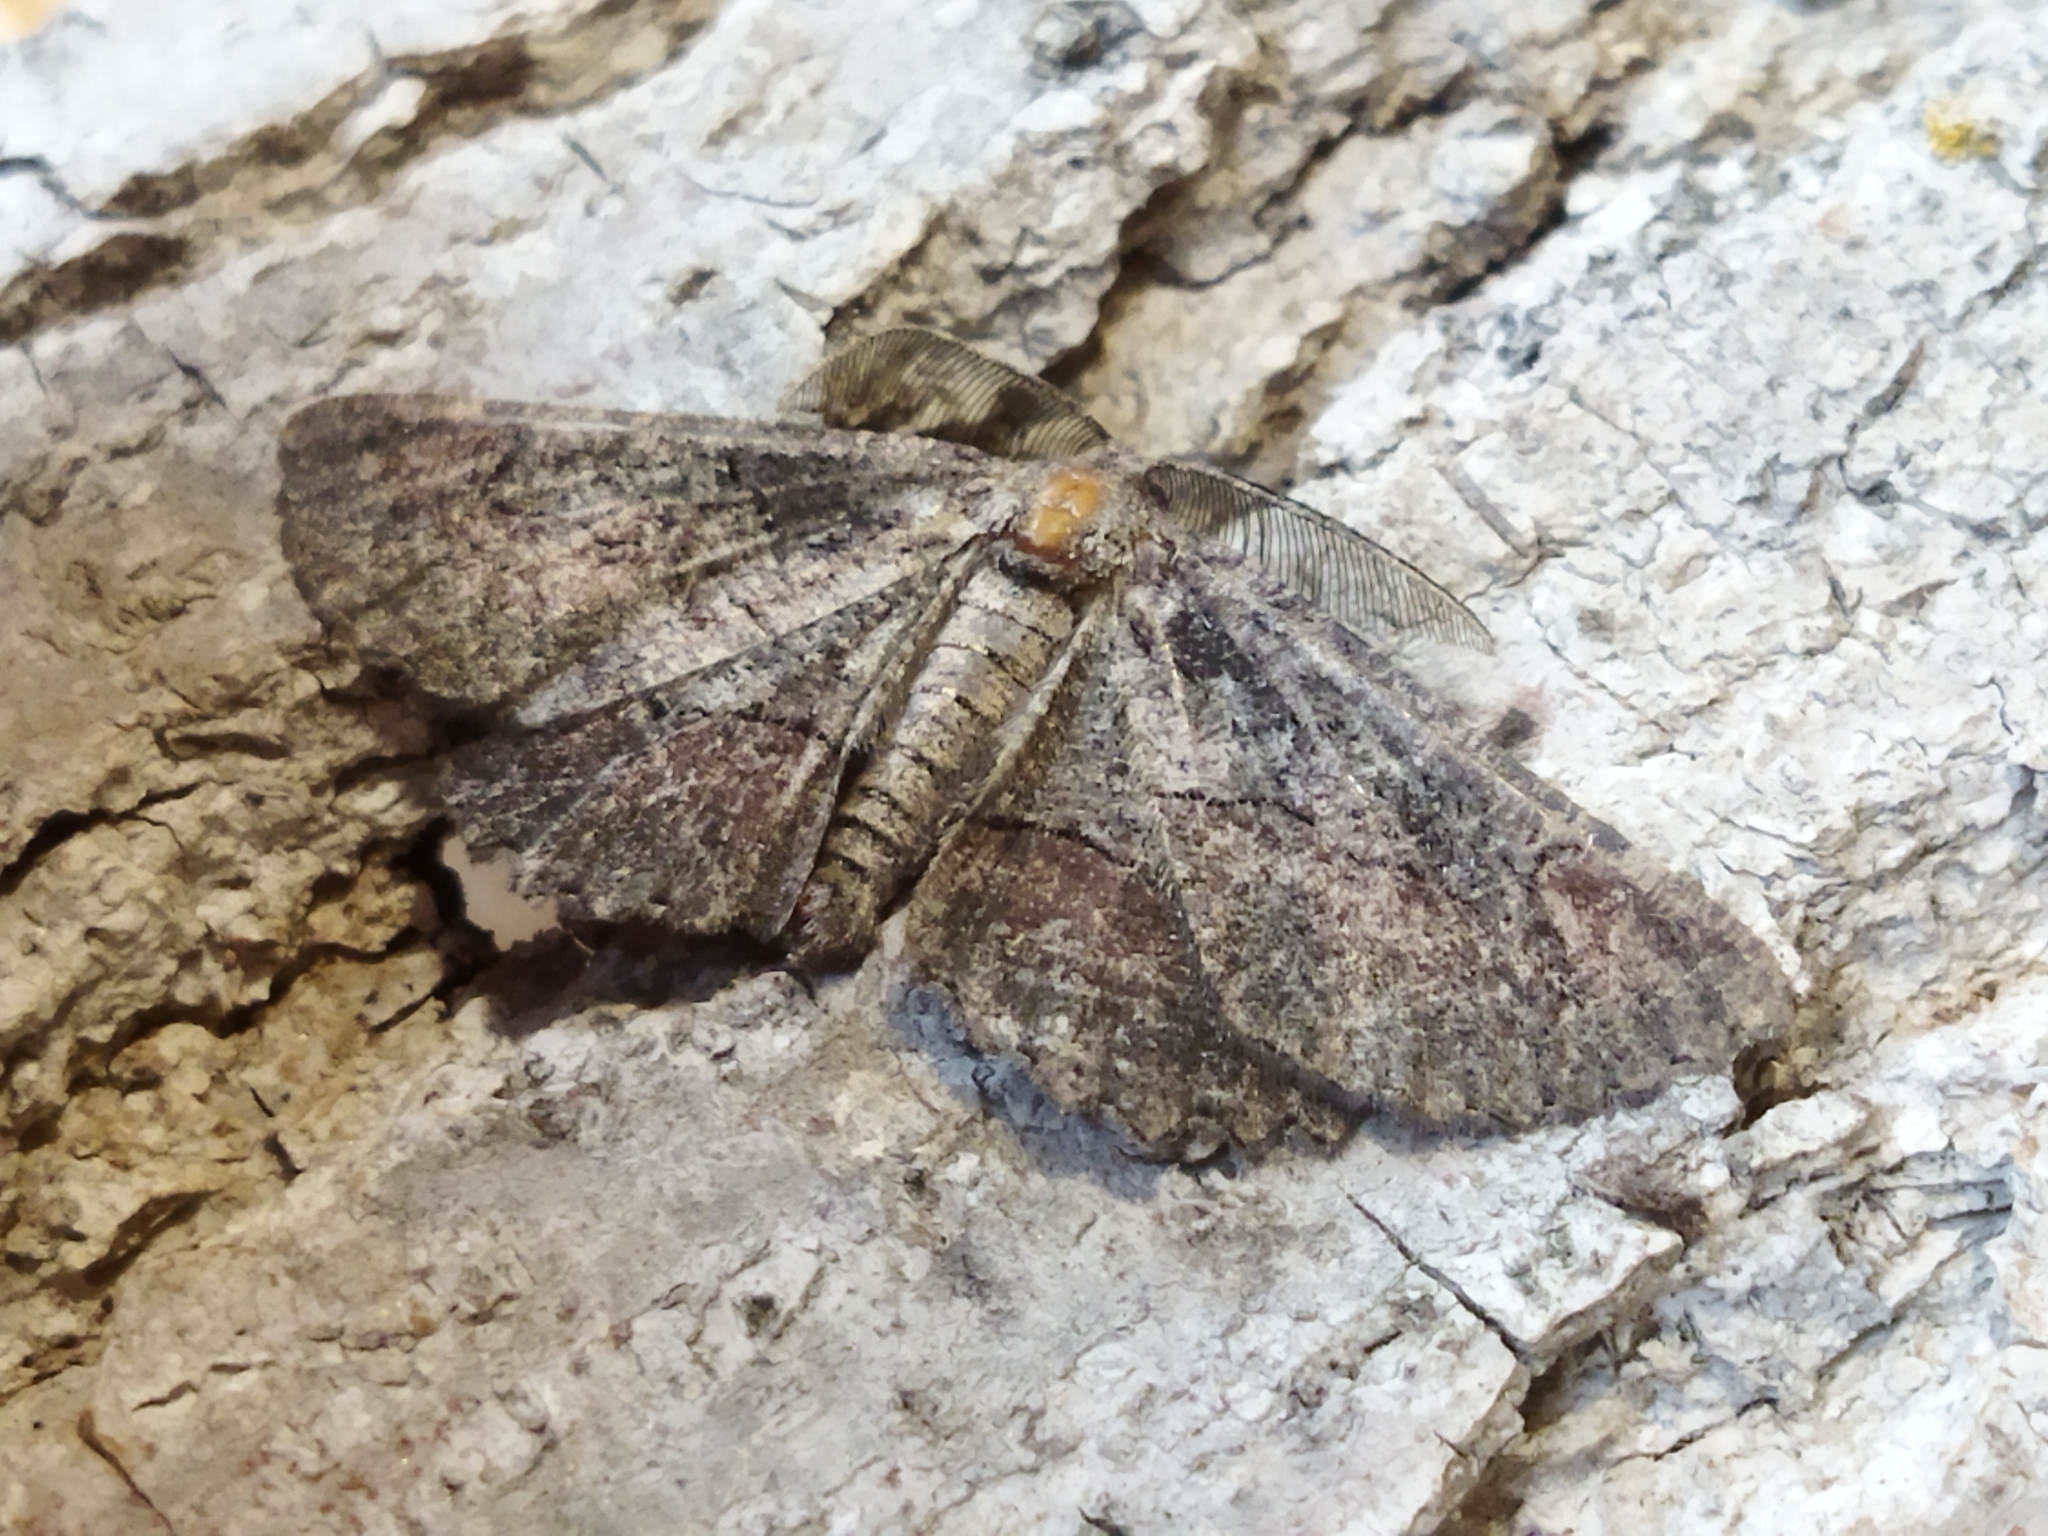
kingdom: Animalia
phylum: Arthropoda
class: Insecta
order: Lepidoptera
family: Geometridae
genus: Nychiodes
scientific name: Nychiodes waltheri
